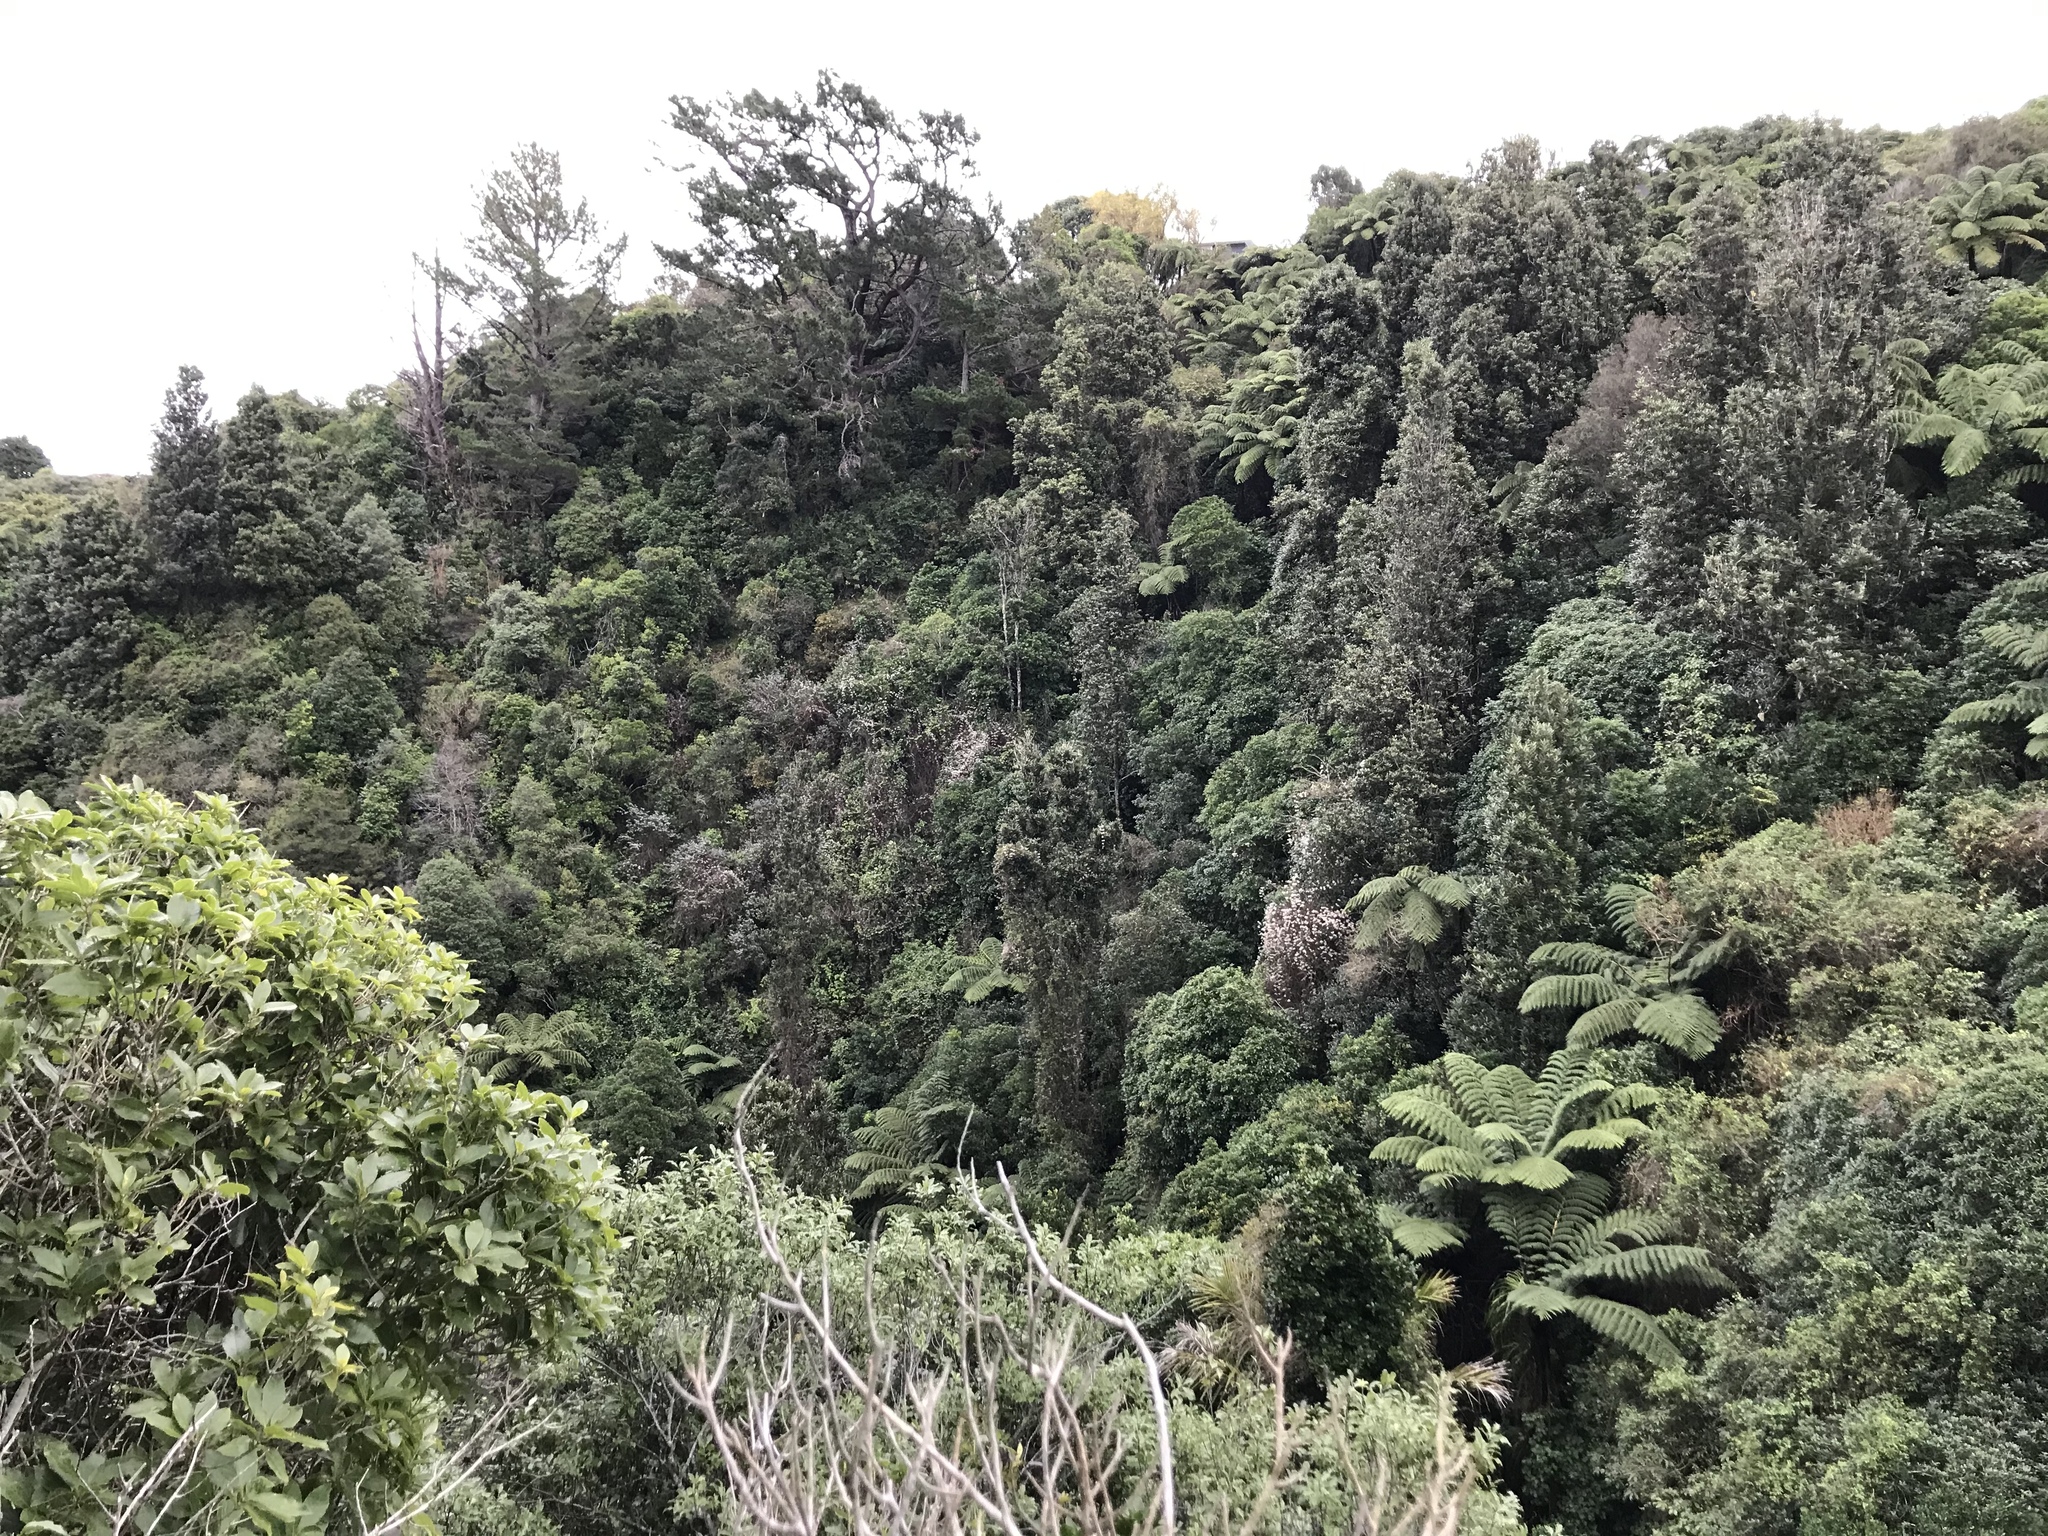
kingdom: Plantae
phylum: Tracheophyta
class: Magnoliopsida
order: Ranunculales
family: Ranunculaceae
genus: Clematis
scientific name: Clematis vitalba
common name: Evergreen clematis
